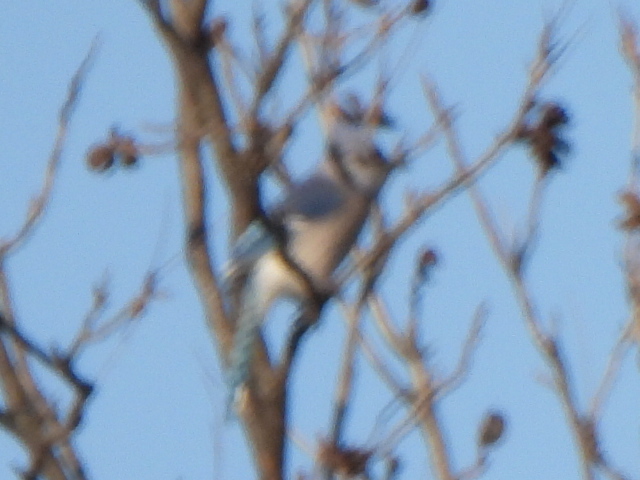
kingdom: Animalia
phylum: Chordata
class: Aves
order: Passeriformes
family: Corvidae
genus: Cyanocitta
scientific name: Cyanocitta cristata
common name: Blue jay
